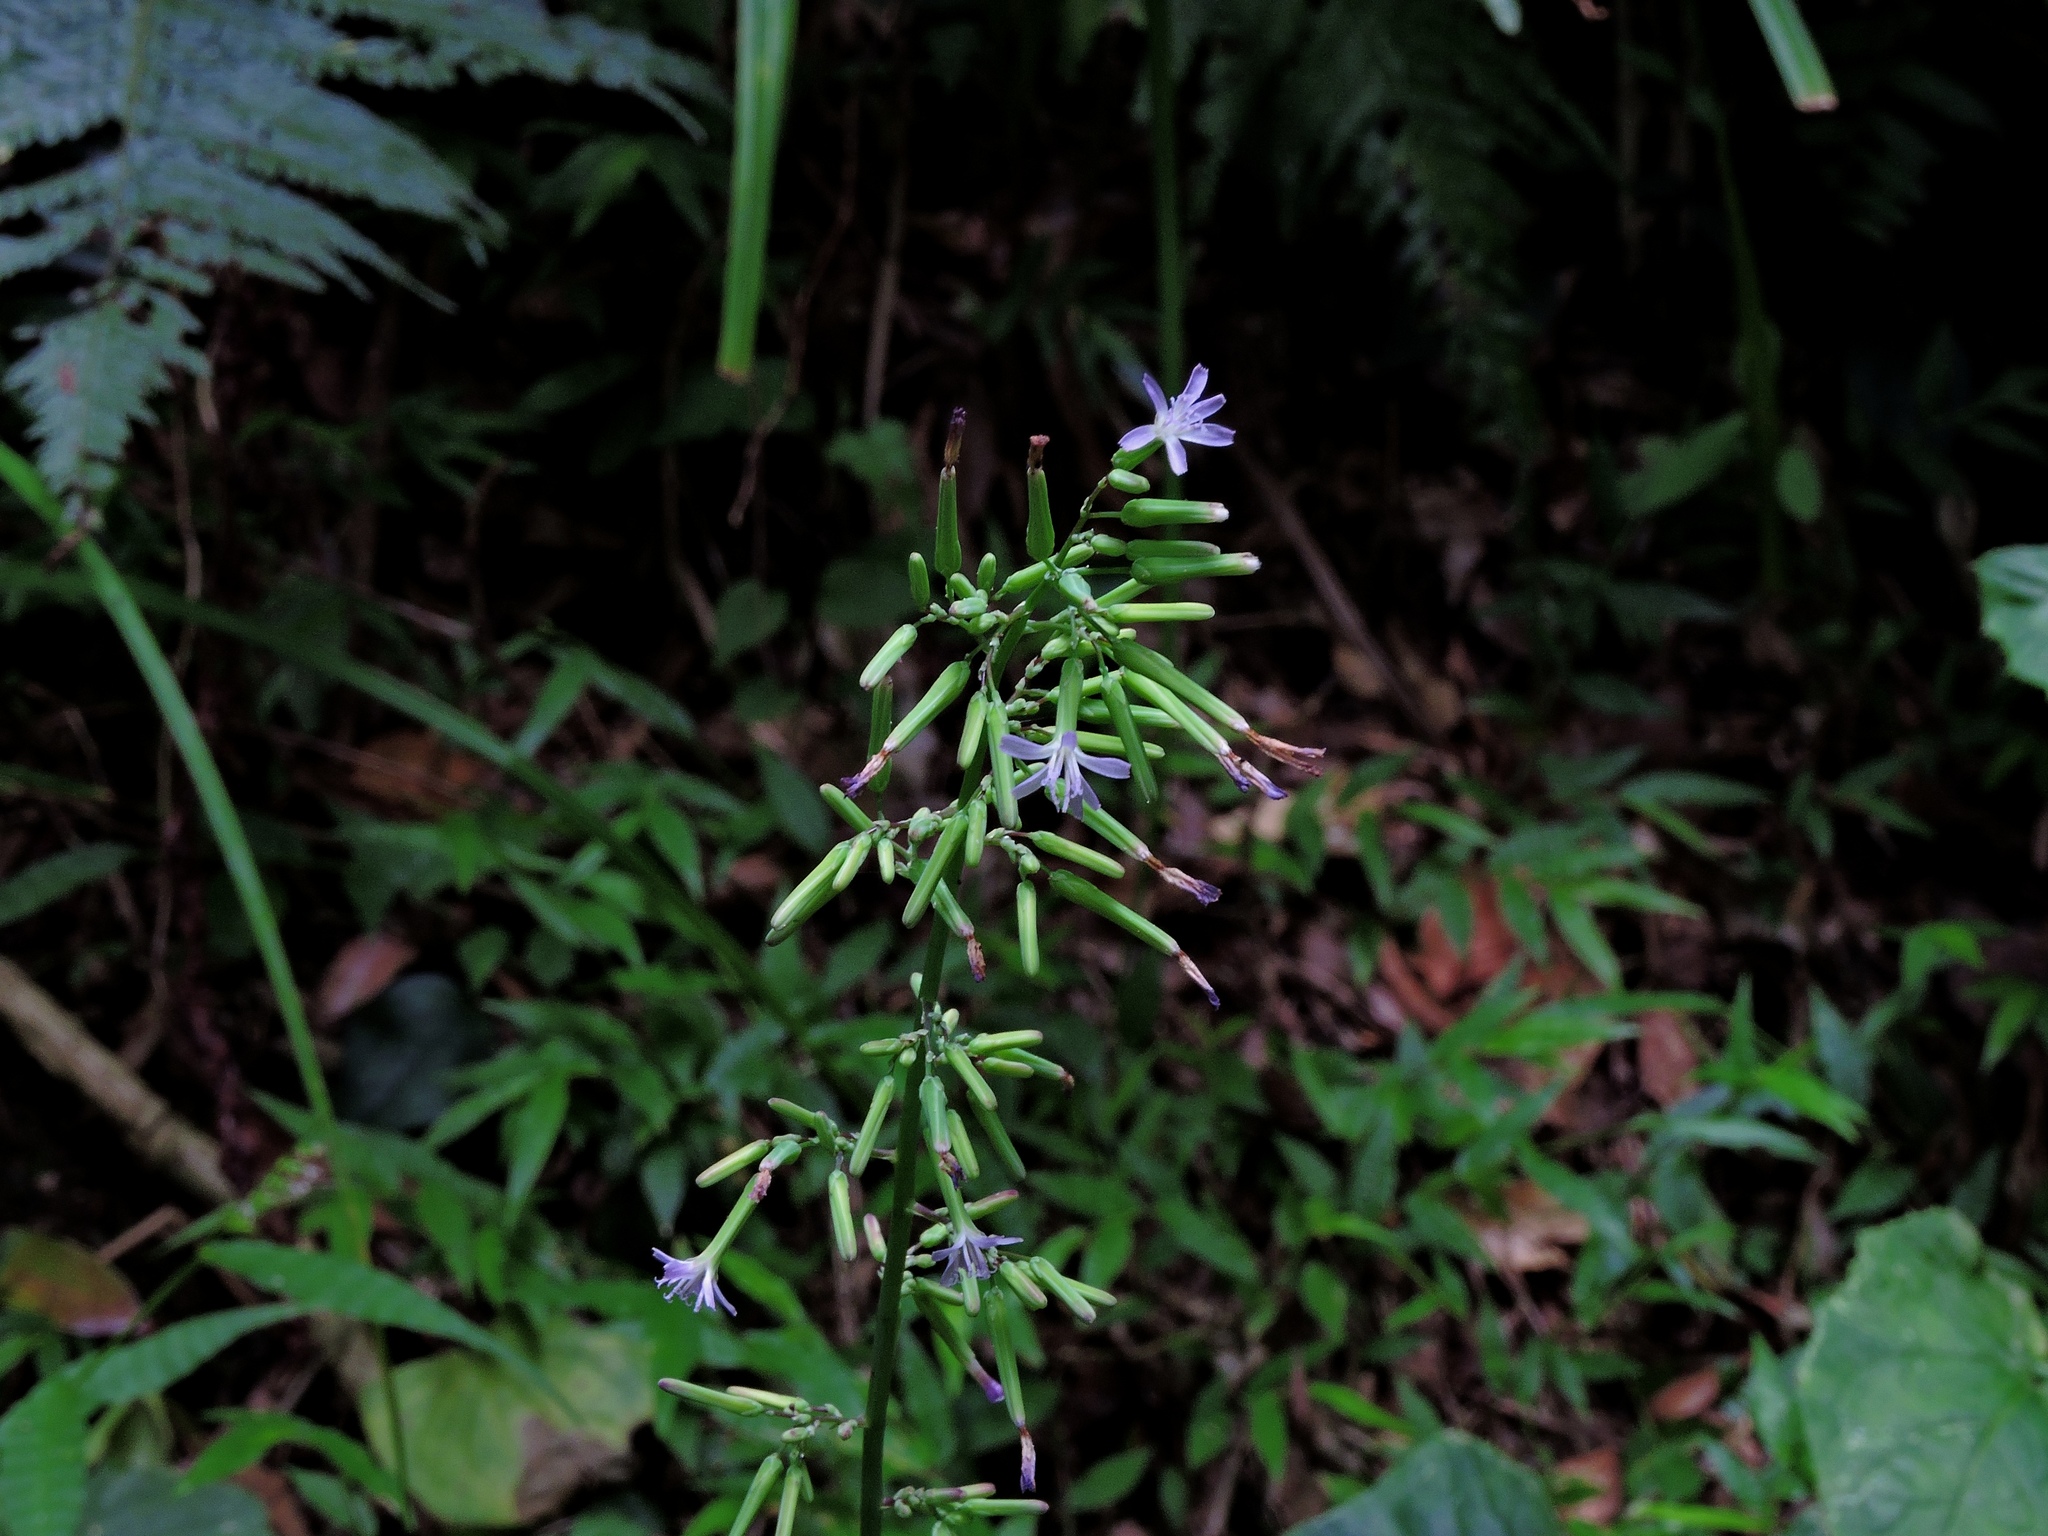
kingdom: Plantae
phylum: Tracheophyta
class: Magnoliopsida
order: Asterales
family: Asteraceae
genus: Paraprenanthes
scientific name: Paraprenanthes sororia
